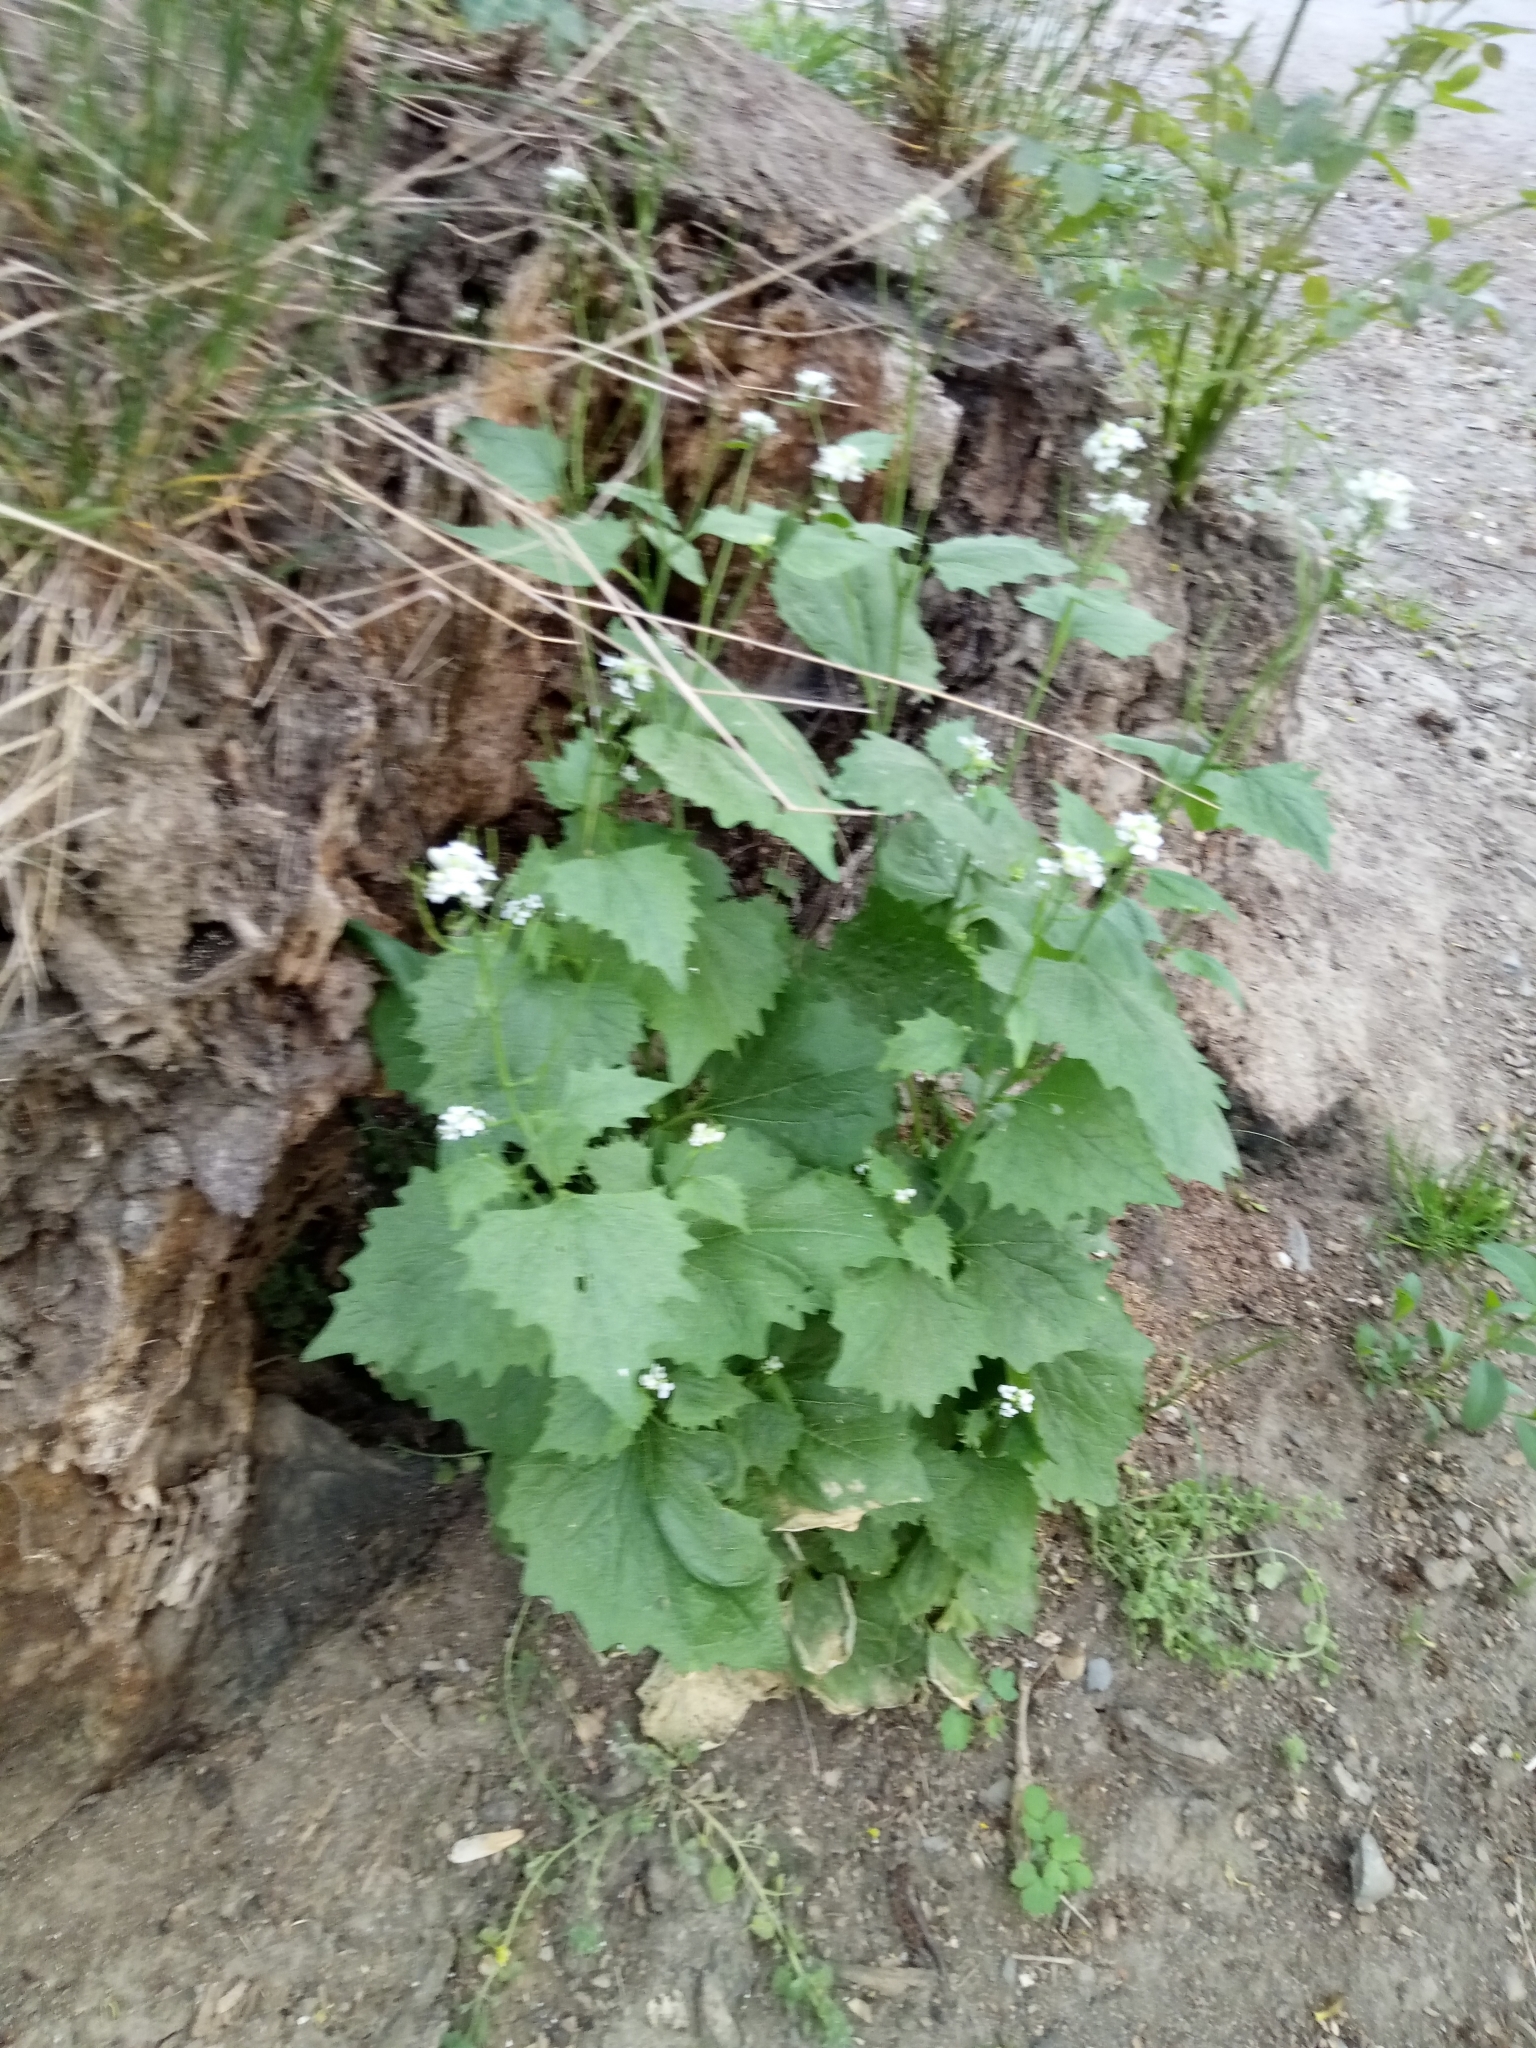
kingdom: Plantae
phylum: Tracheophyta
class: Magnoliopsida
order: Brassicales
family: Brassicaceae
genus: Alliaria
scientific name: Alliaria petiolata
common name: Garlic mustard
